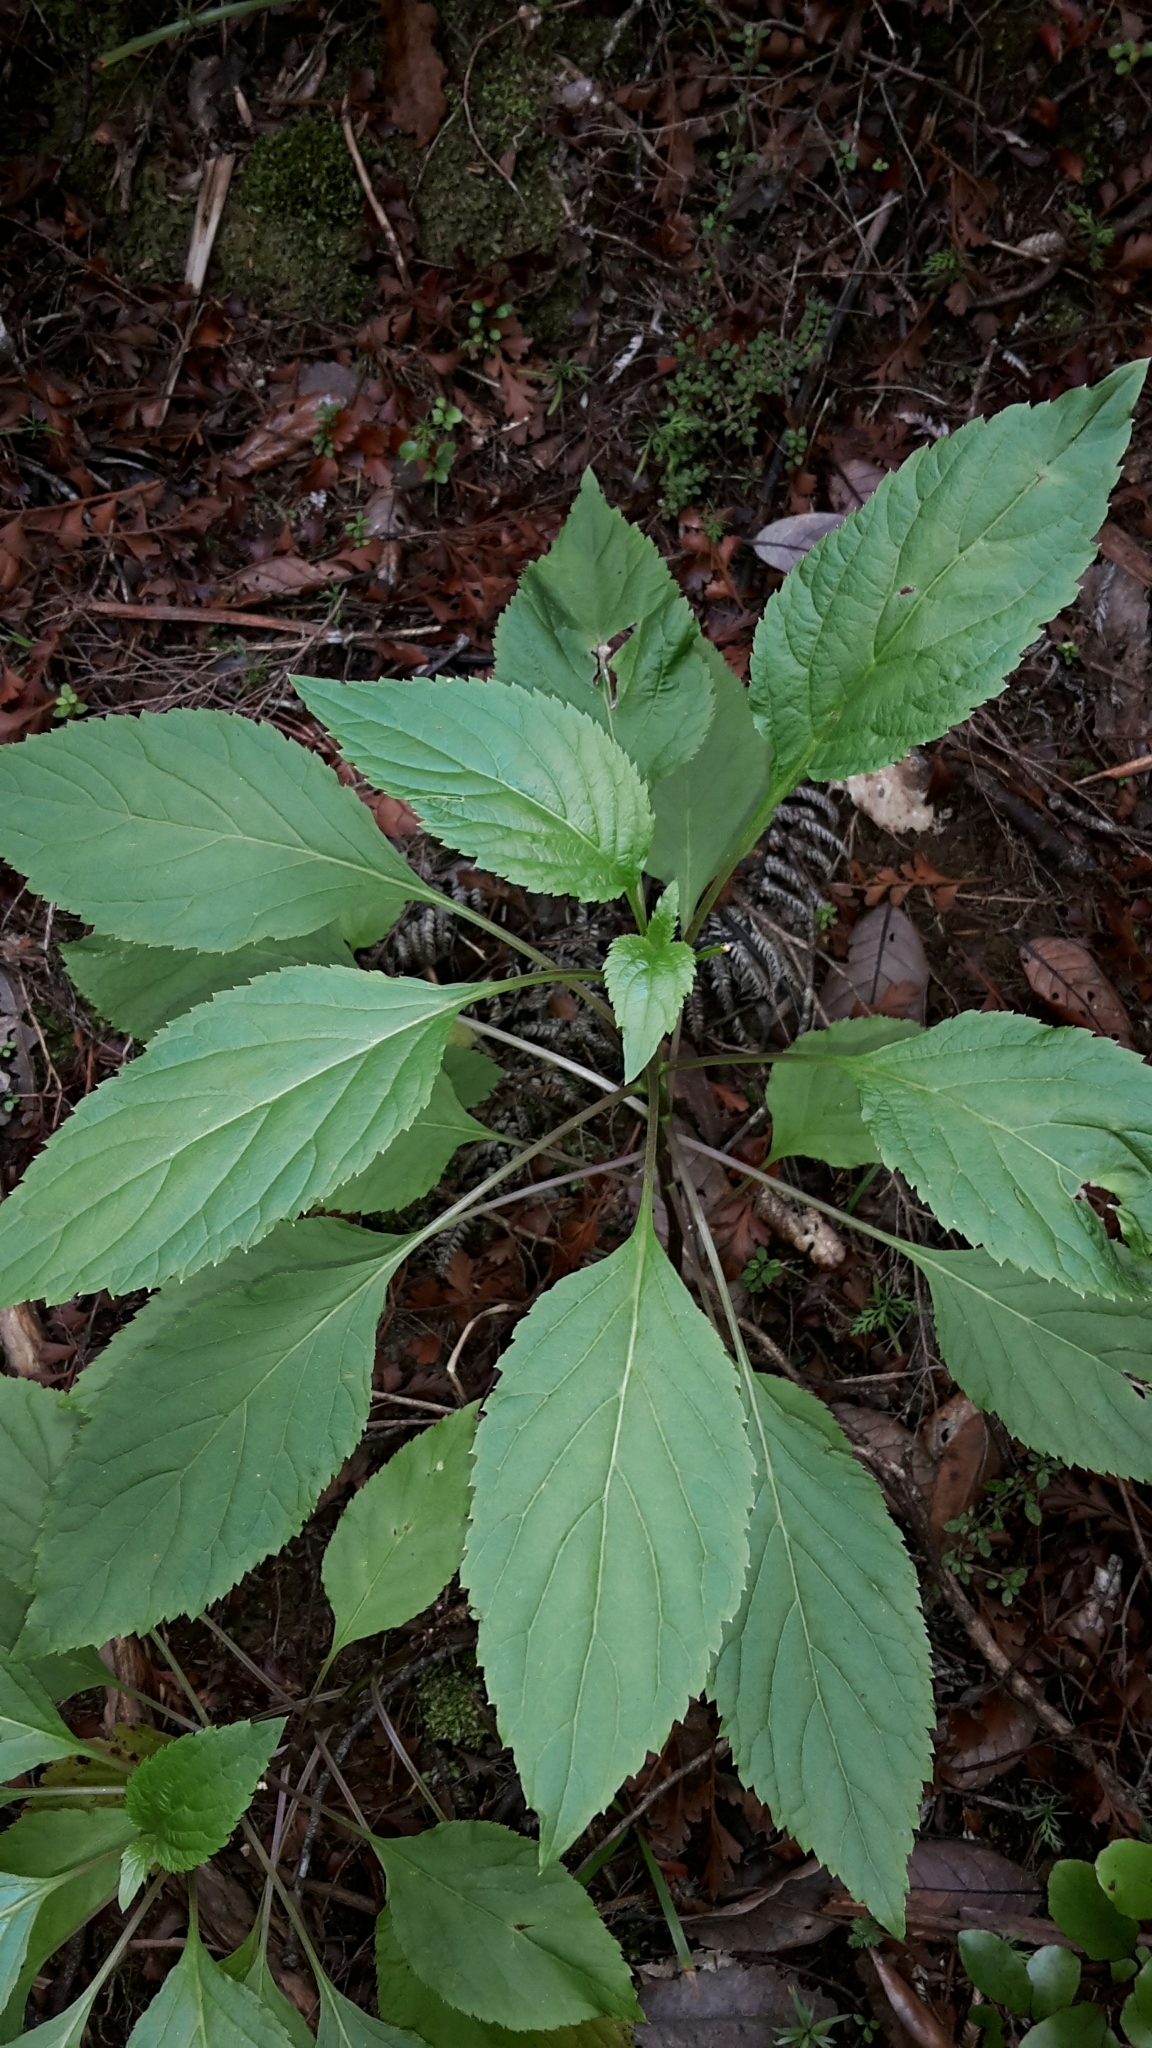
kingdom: Plantae
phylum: Tracheophyta
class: Magnoliopsida
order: Asterales
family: Campanulaceae
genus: Lobelia
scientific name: Lobelia physaloides
